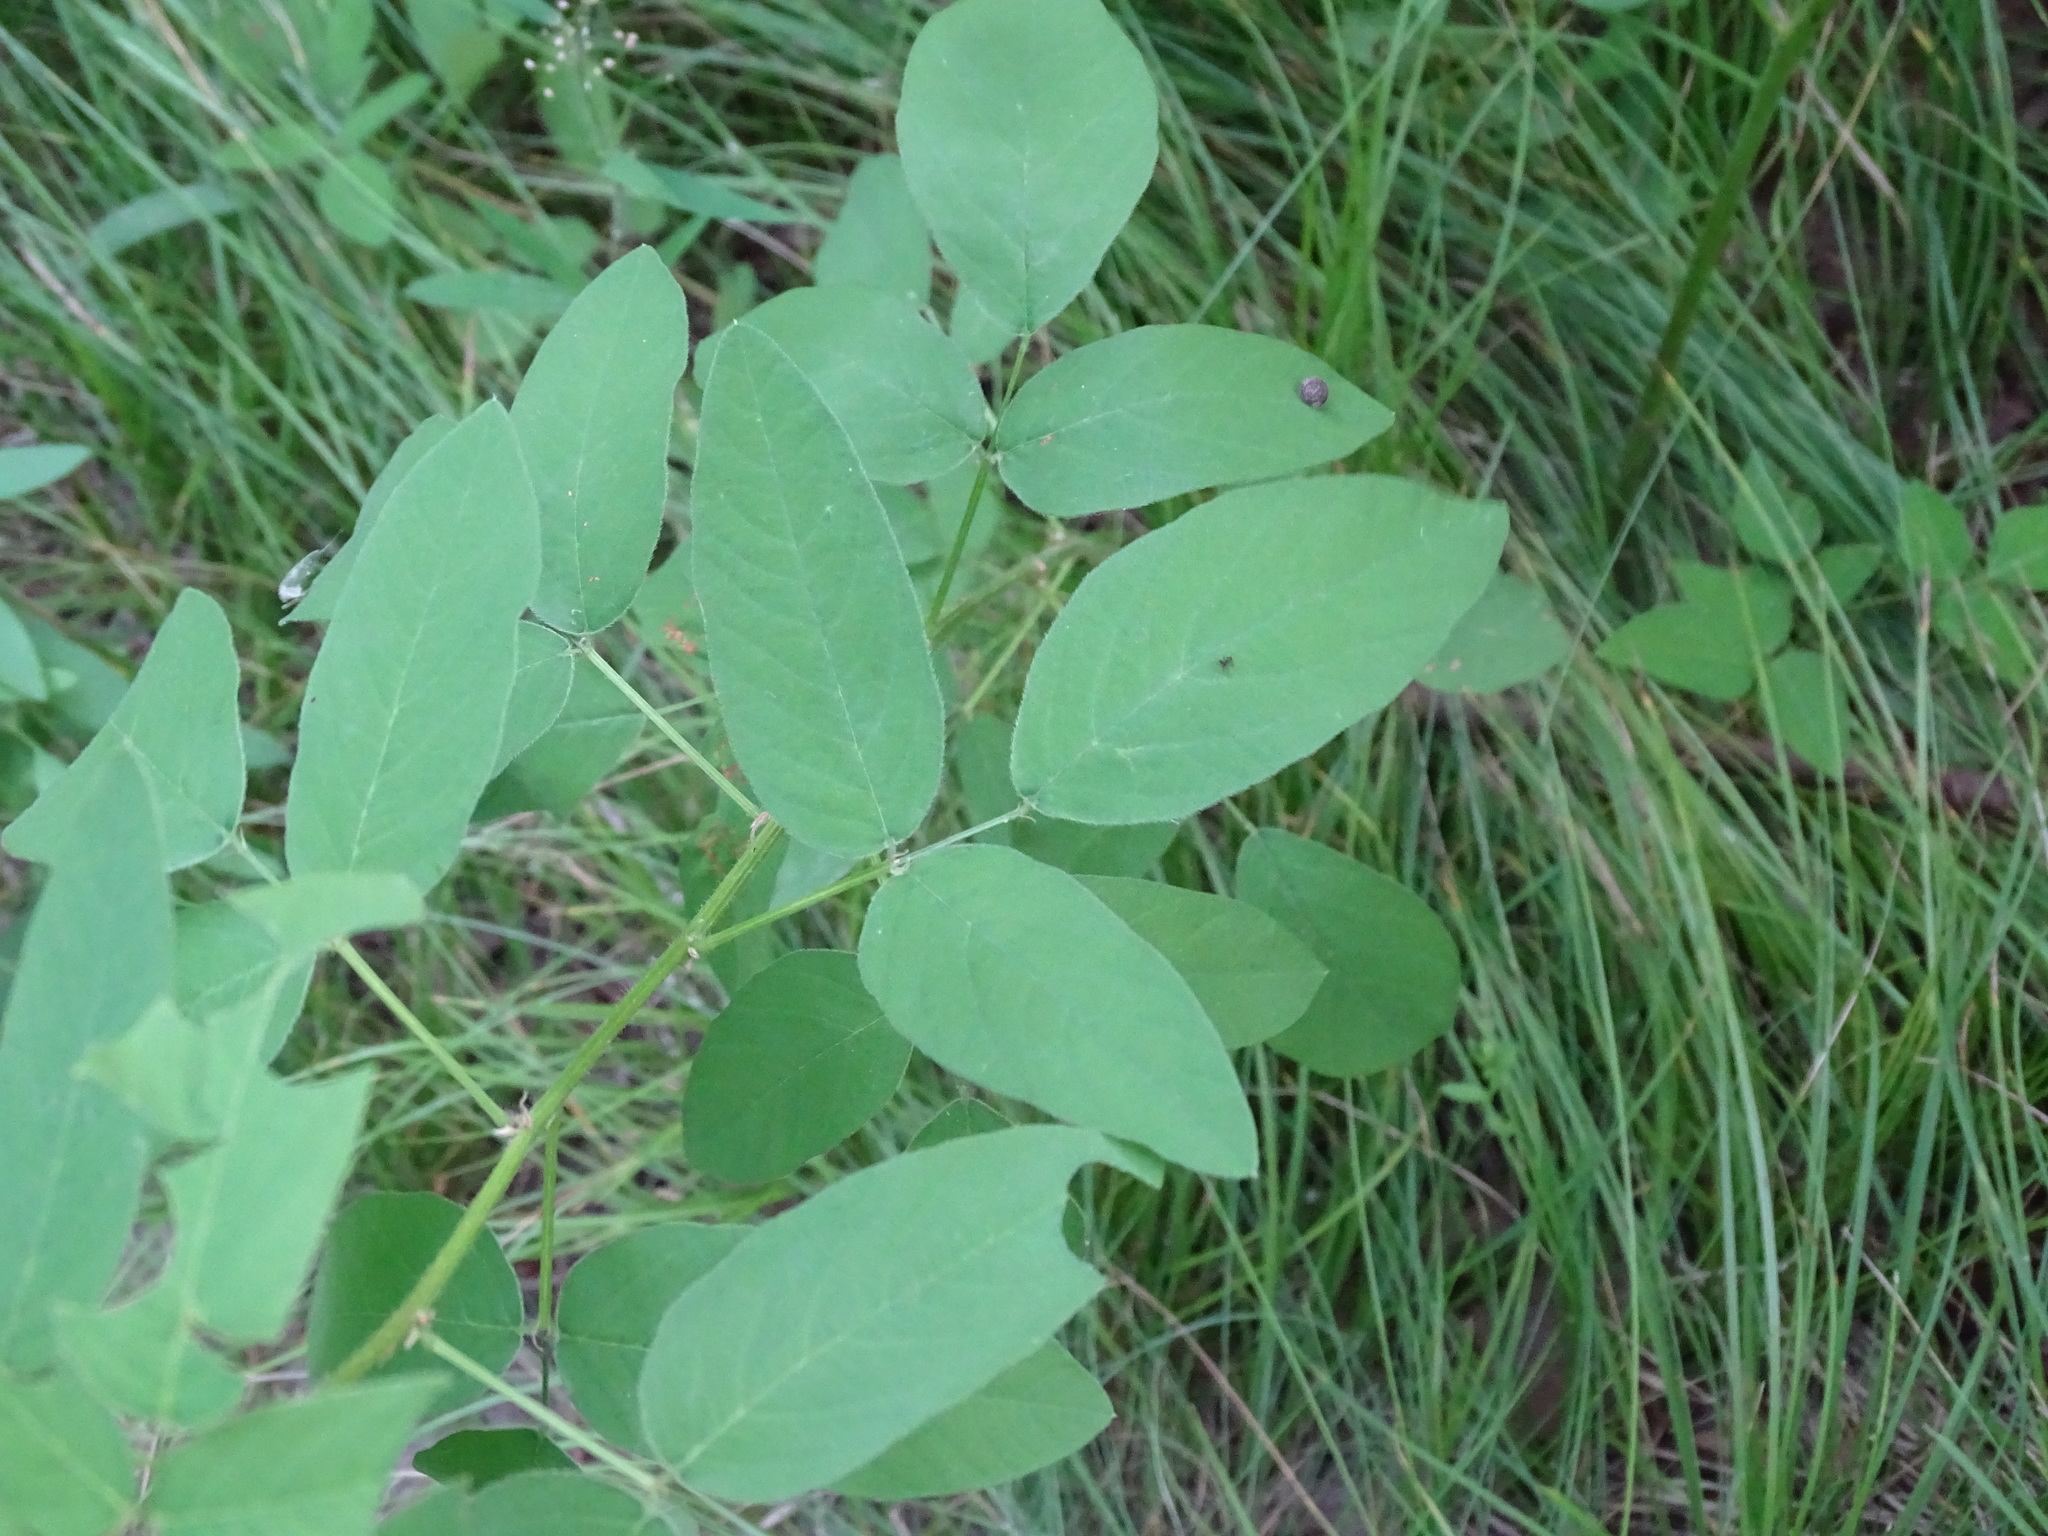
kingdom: Plantae
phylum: Tracheophyta
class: Magnoliopsida
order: Fabales
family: Fabaceae
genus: Desmodium
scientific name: Desmodium canadense
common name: Canada tick-trefoil
